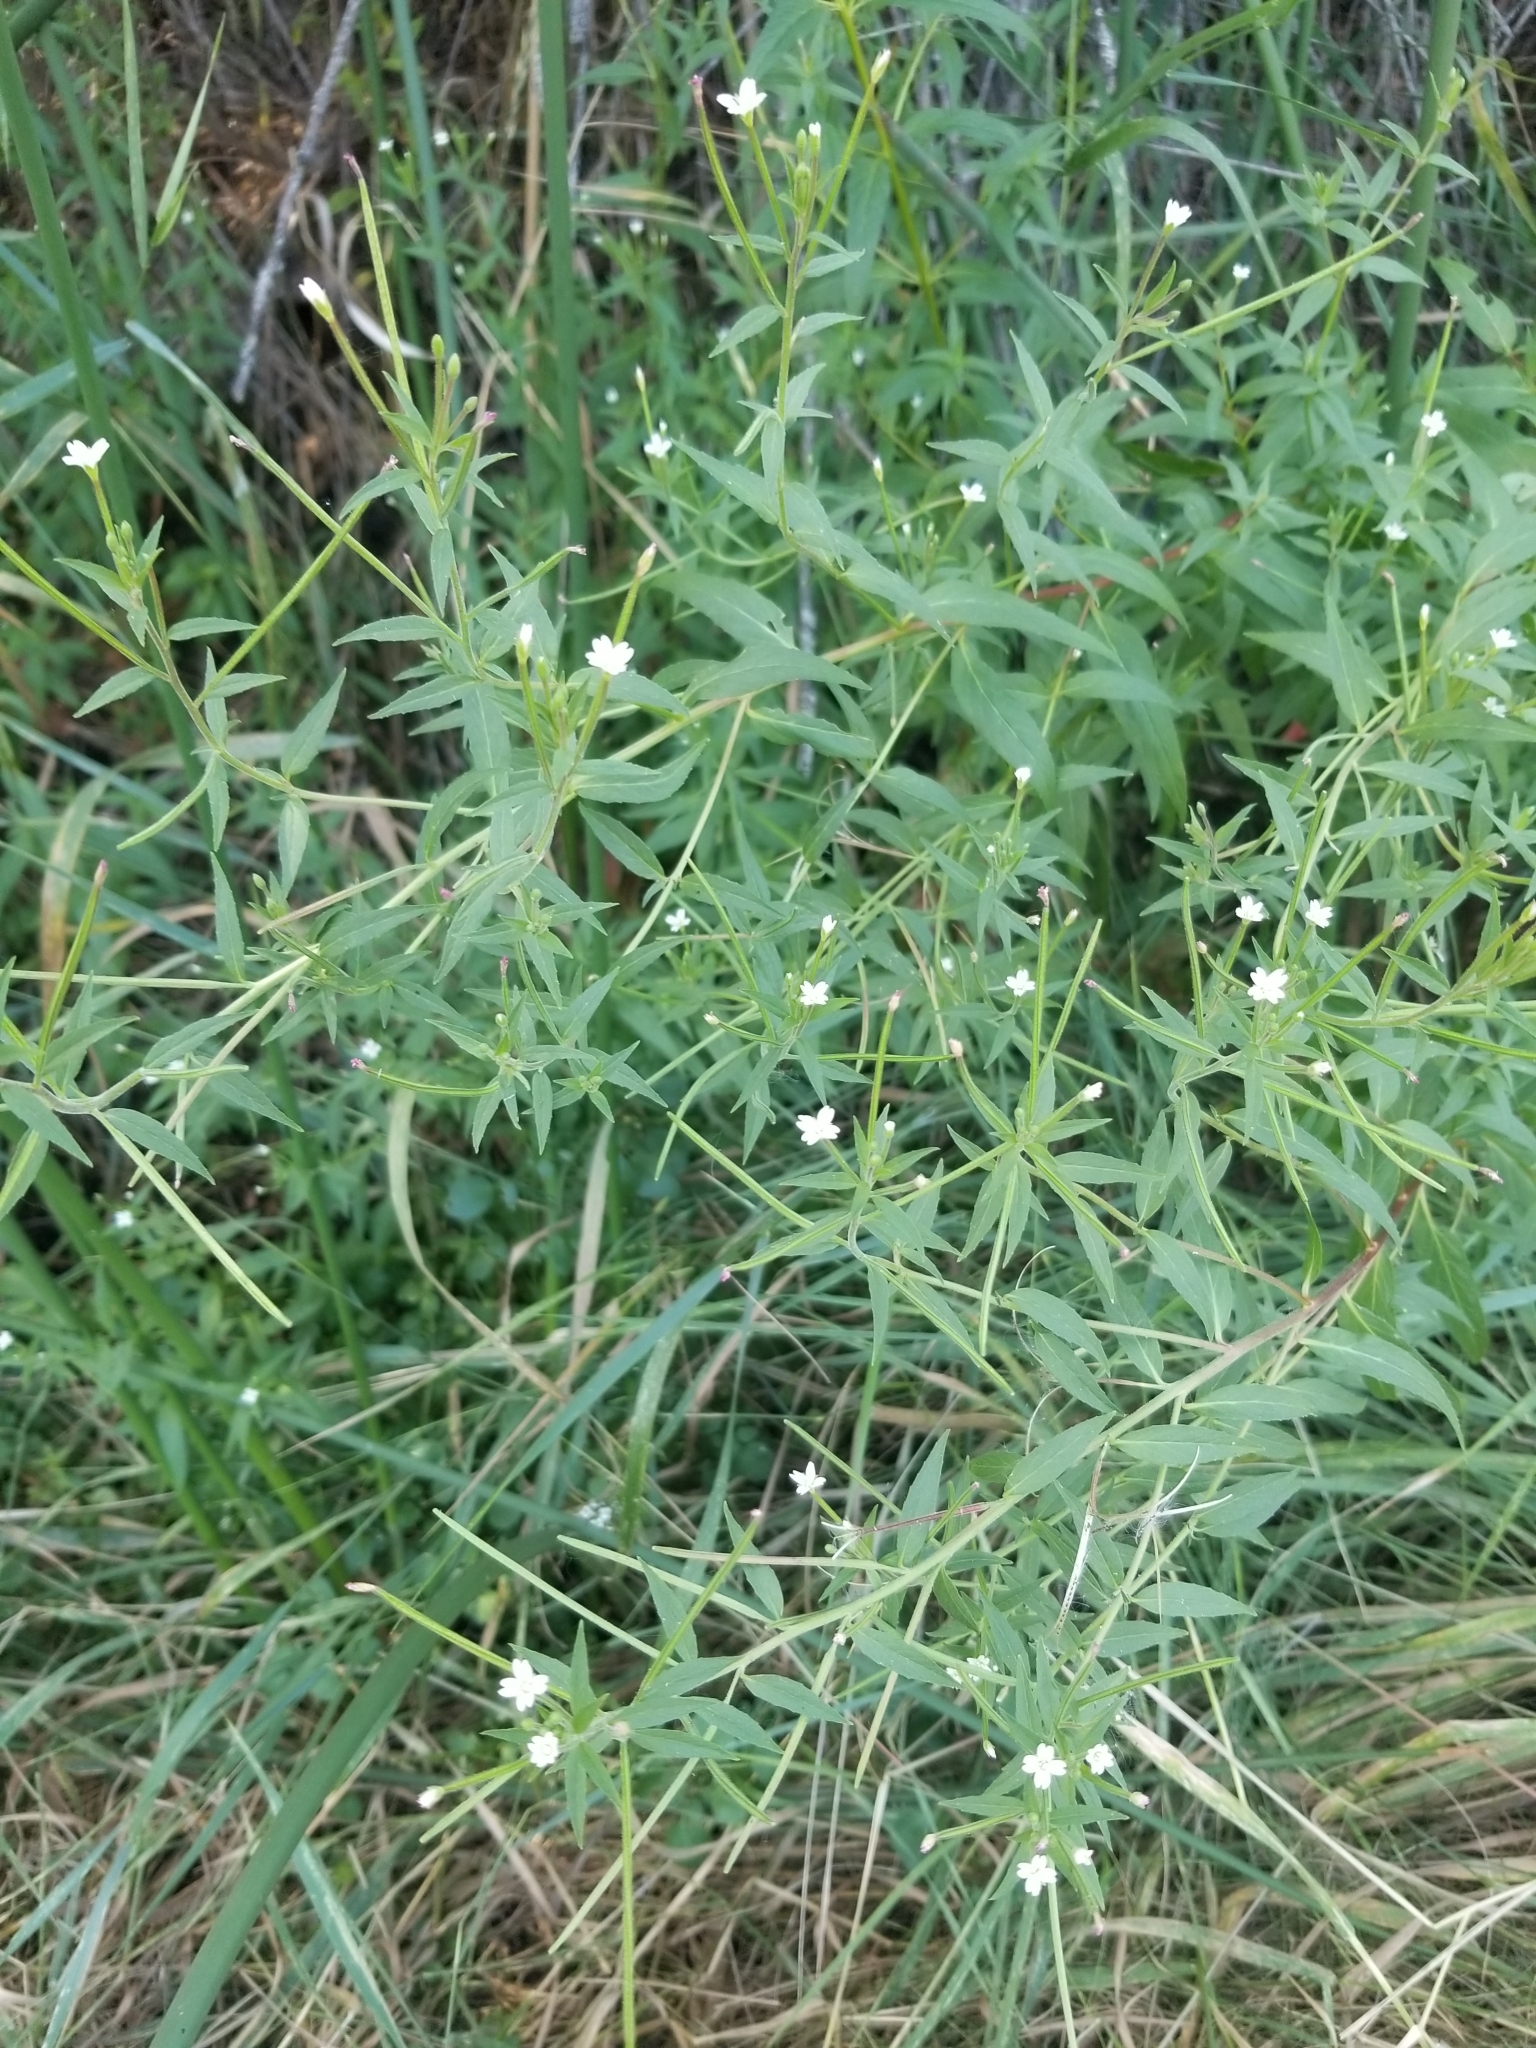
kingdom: Plantae
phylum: Tracheophyta
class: Magnoliopsida
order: Myrtales
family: Onagraceae
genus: Epilobium
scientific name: Epilobium ciliatum
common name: American willowherb
